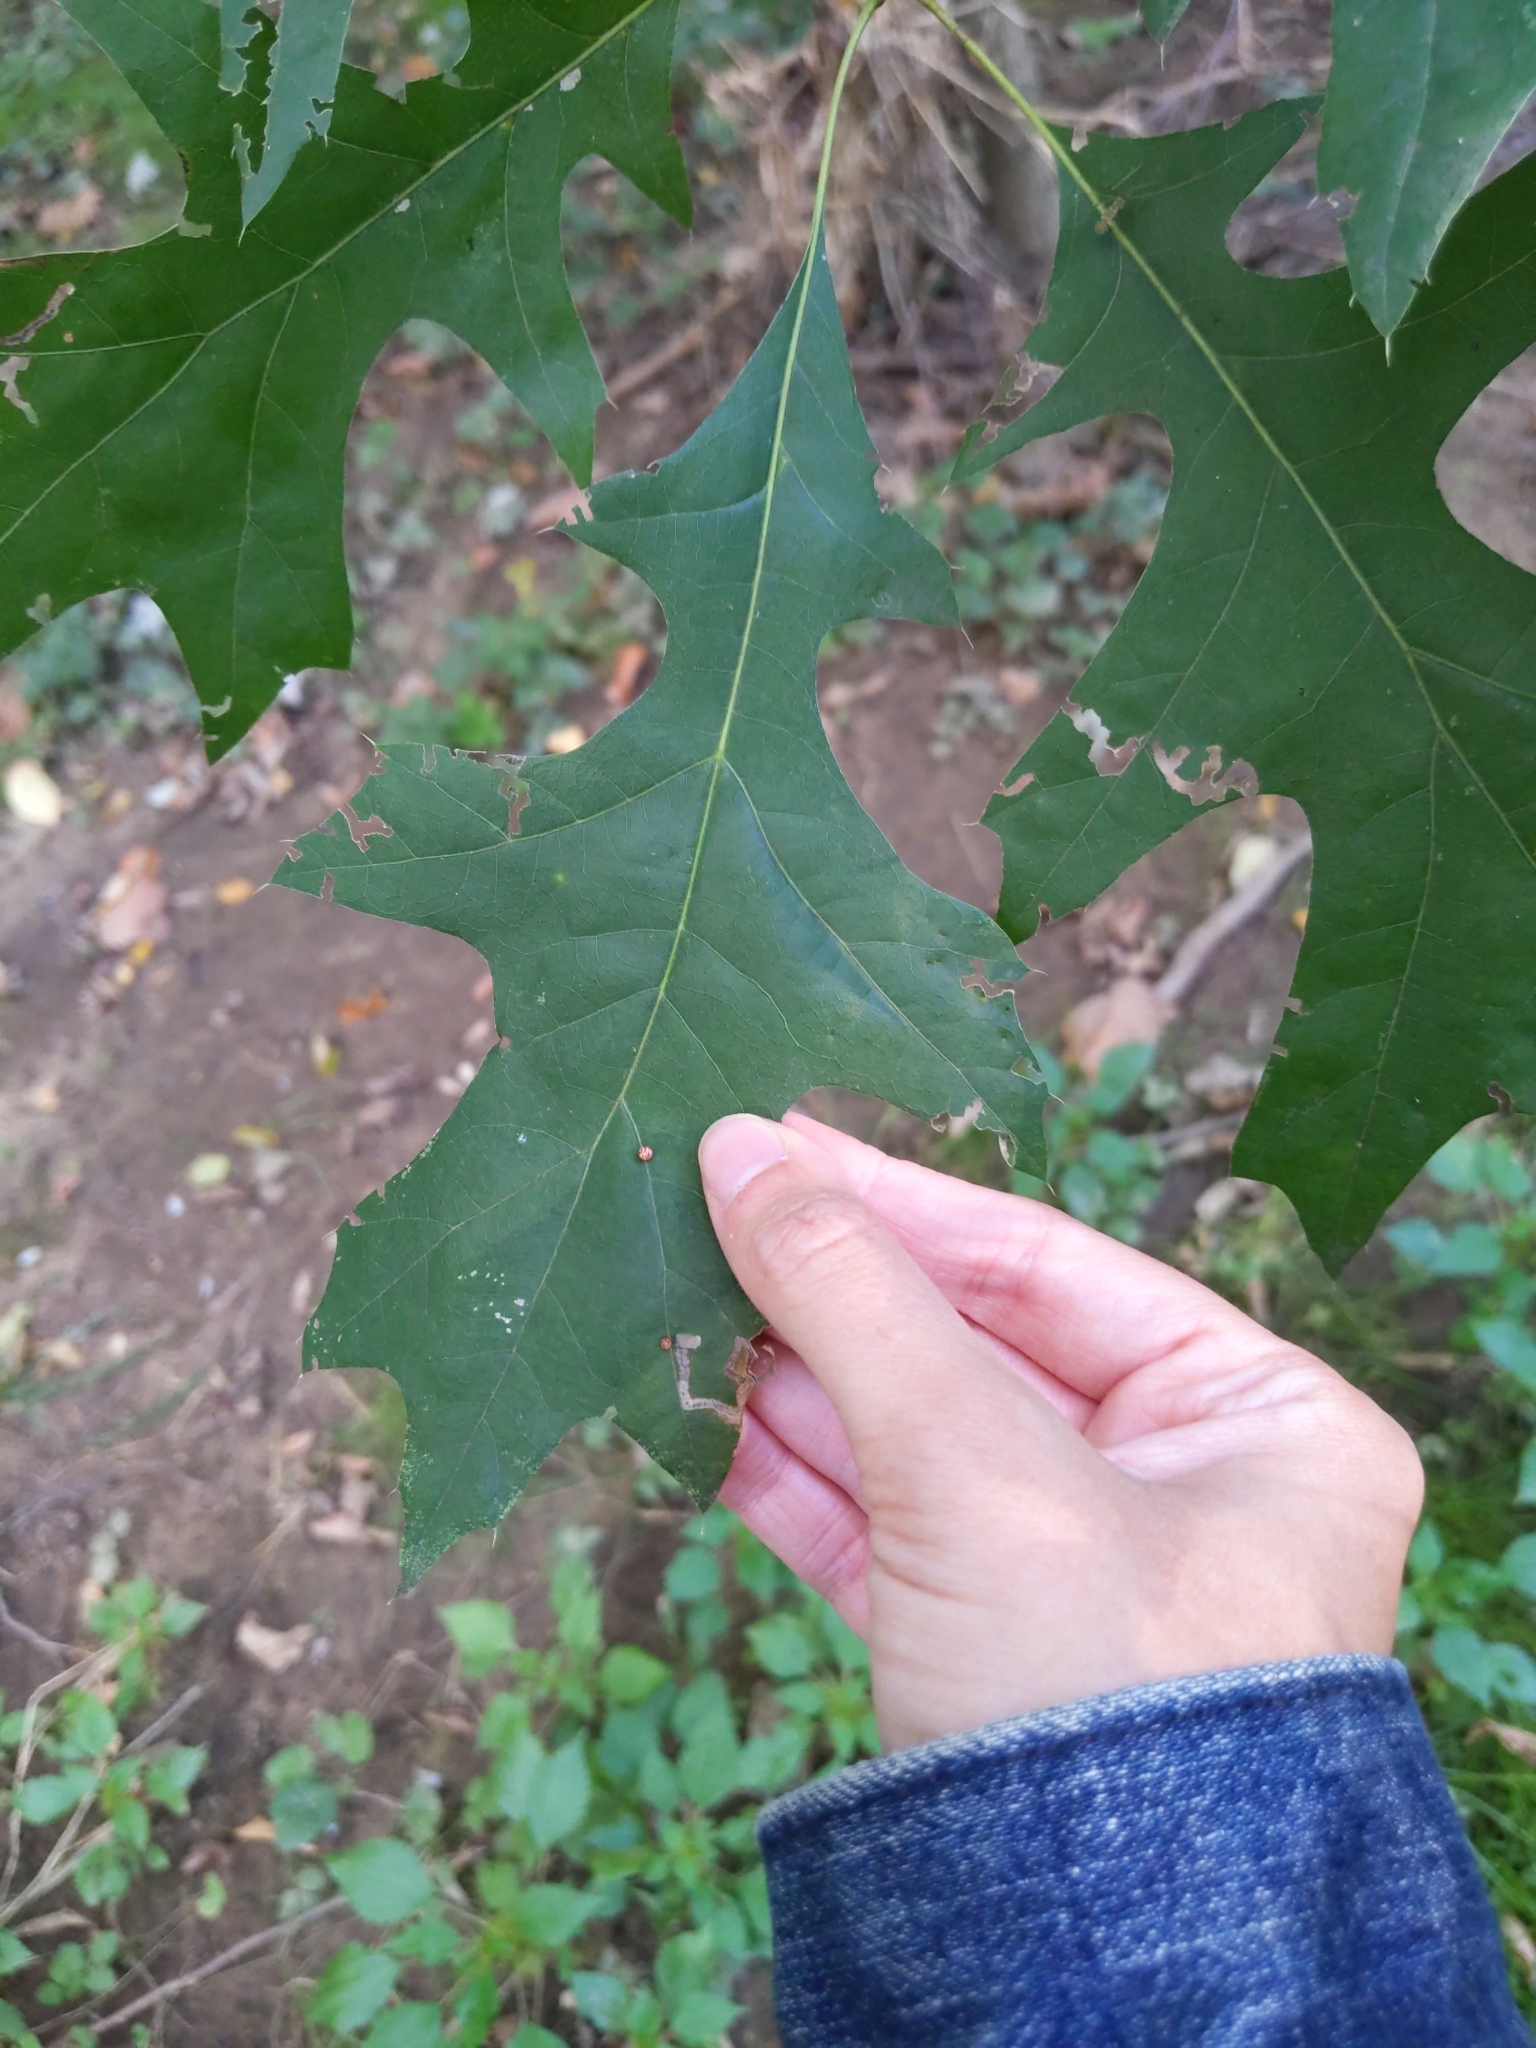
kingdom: Animalia
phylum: Arthropoda
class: Insecta
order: Hymenoptera
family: Cynipidae
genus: Zopheroteras
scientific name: Zopheroteras
